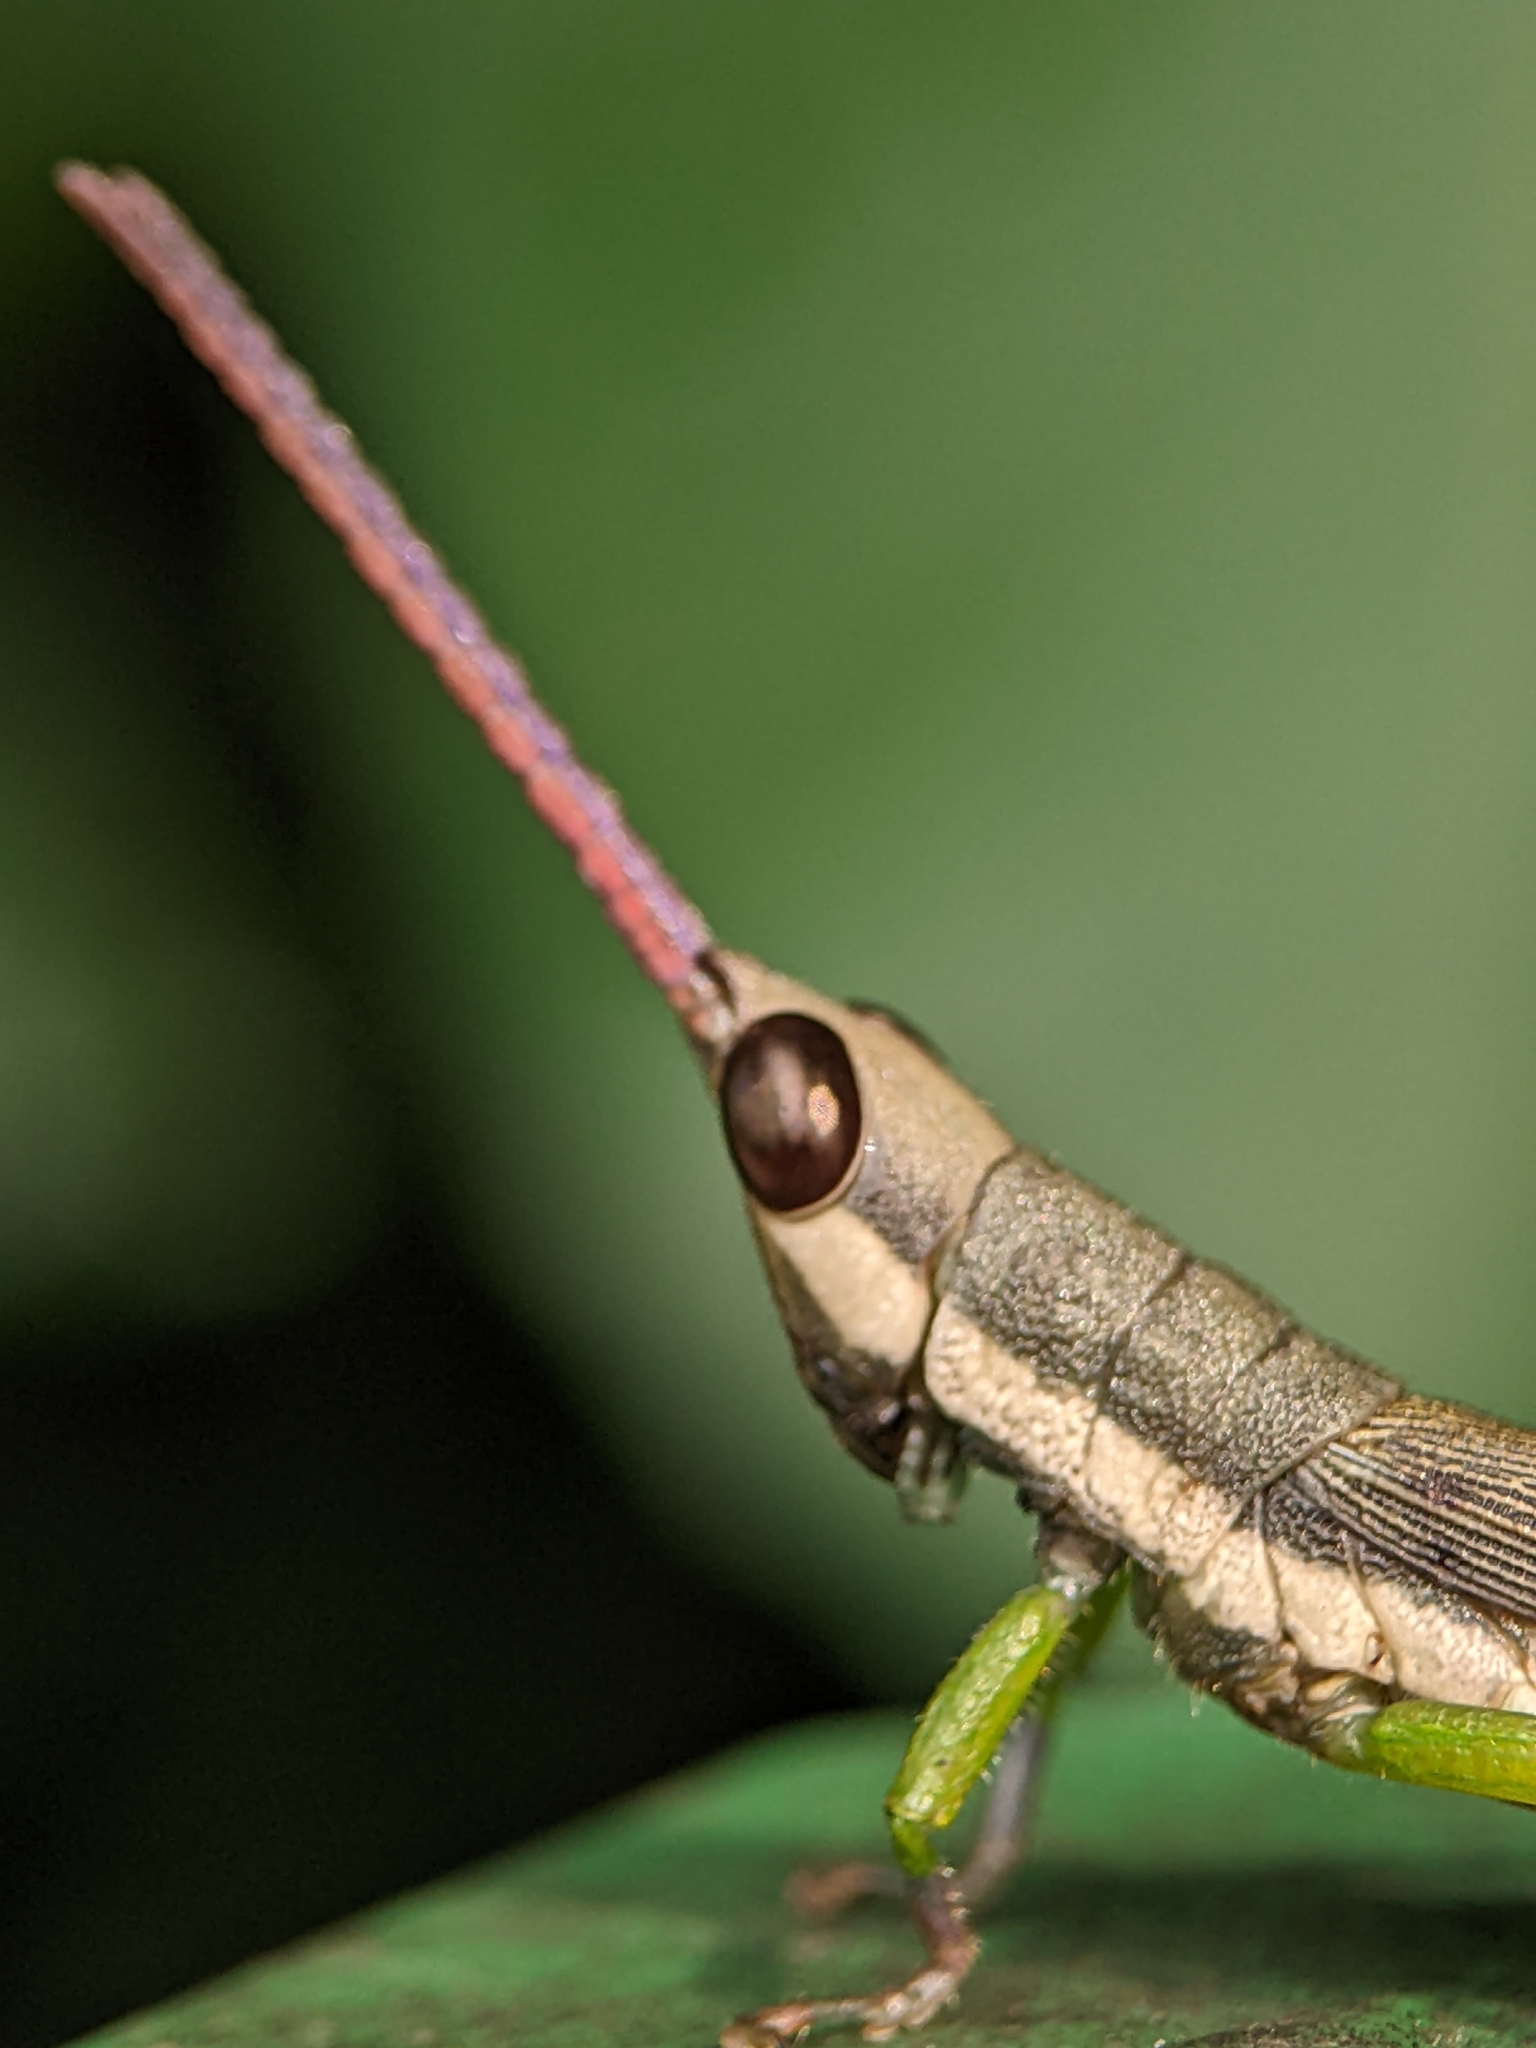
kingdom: Animalia
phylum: Arthropoda
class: Insecta
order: Orthoptera
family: Pyrgomorphidae
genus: Mitricephala
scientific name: Mitricephala milleri
